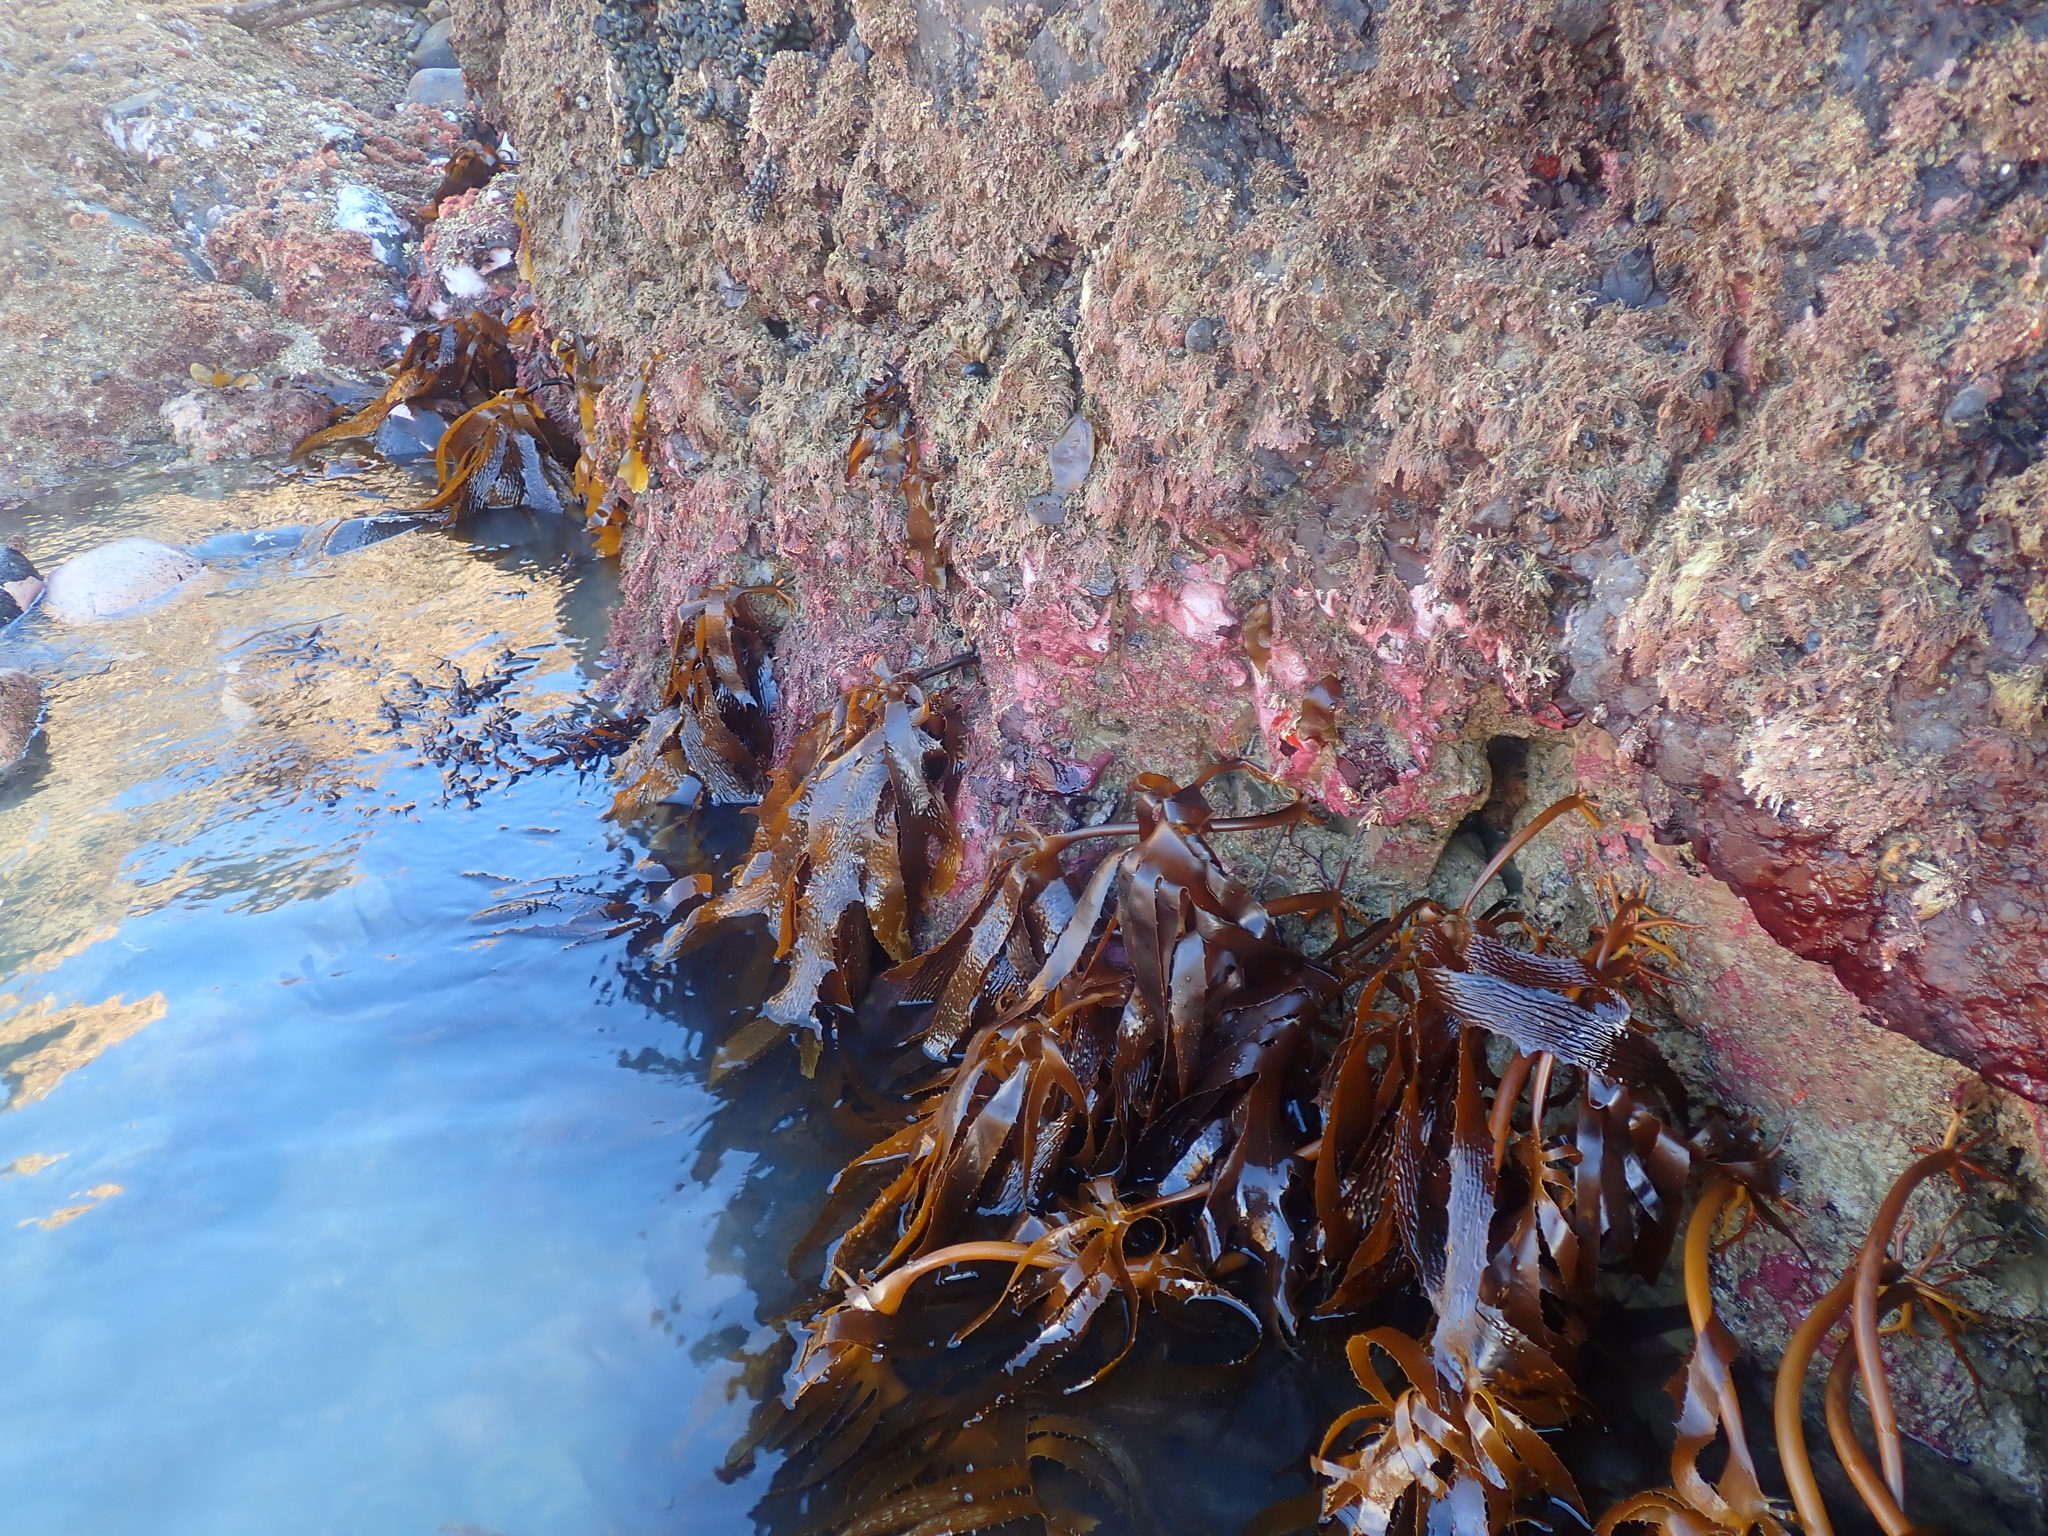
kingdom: Chromista
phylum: Ochrophyta
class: Phaeophyceae
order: Laminariales
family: Lessoniaceae
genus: Ecklonia
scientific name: Ecklonia radiata
